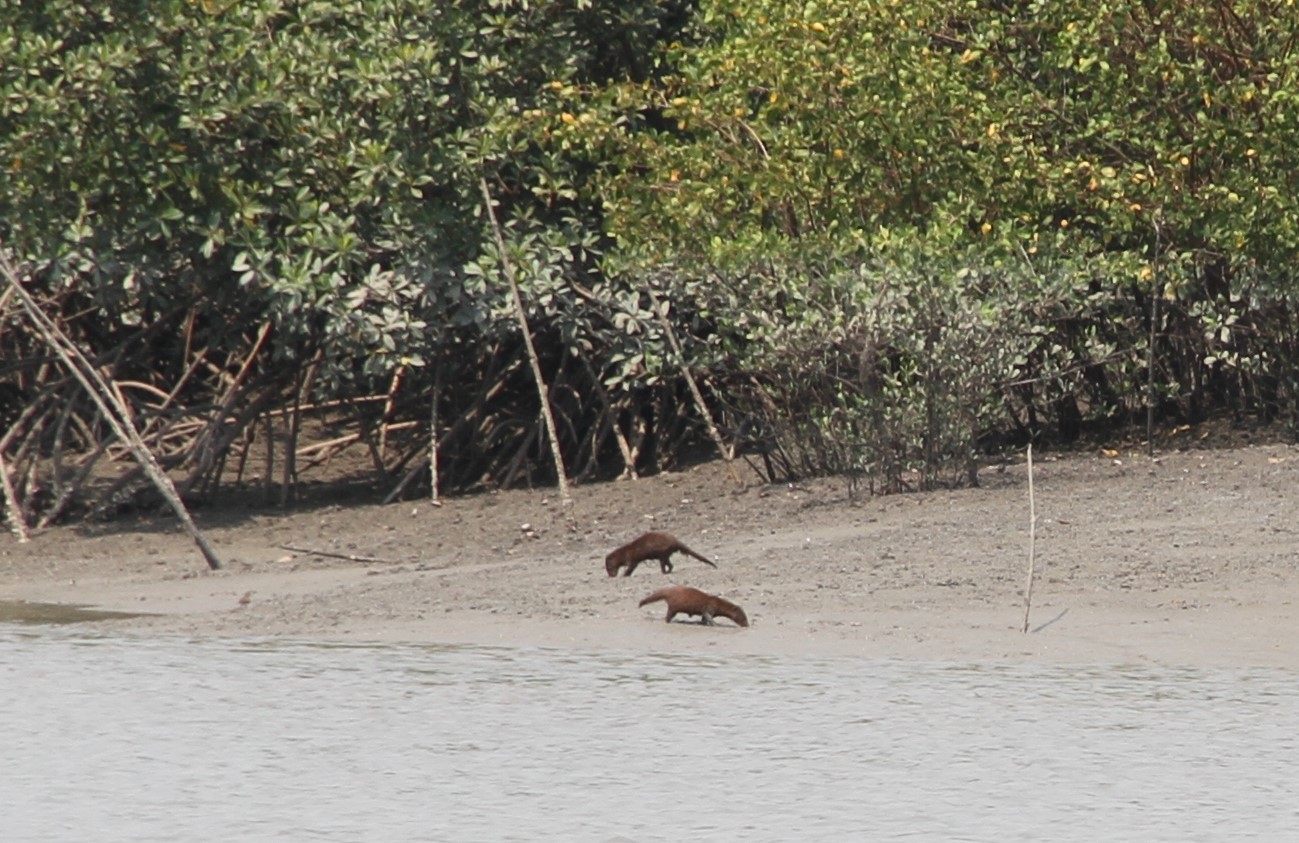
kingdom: Animalia
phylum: Chordata
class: Mammalia
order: Carnivora
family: Herpestidae
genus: Atilax
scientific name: Atilax paludinosus
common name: Marsh mongoose
